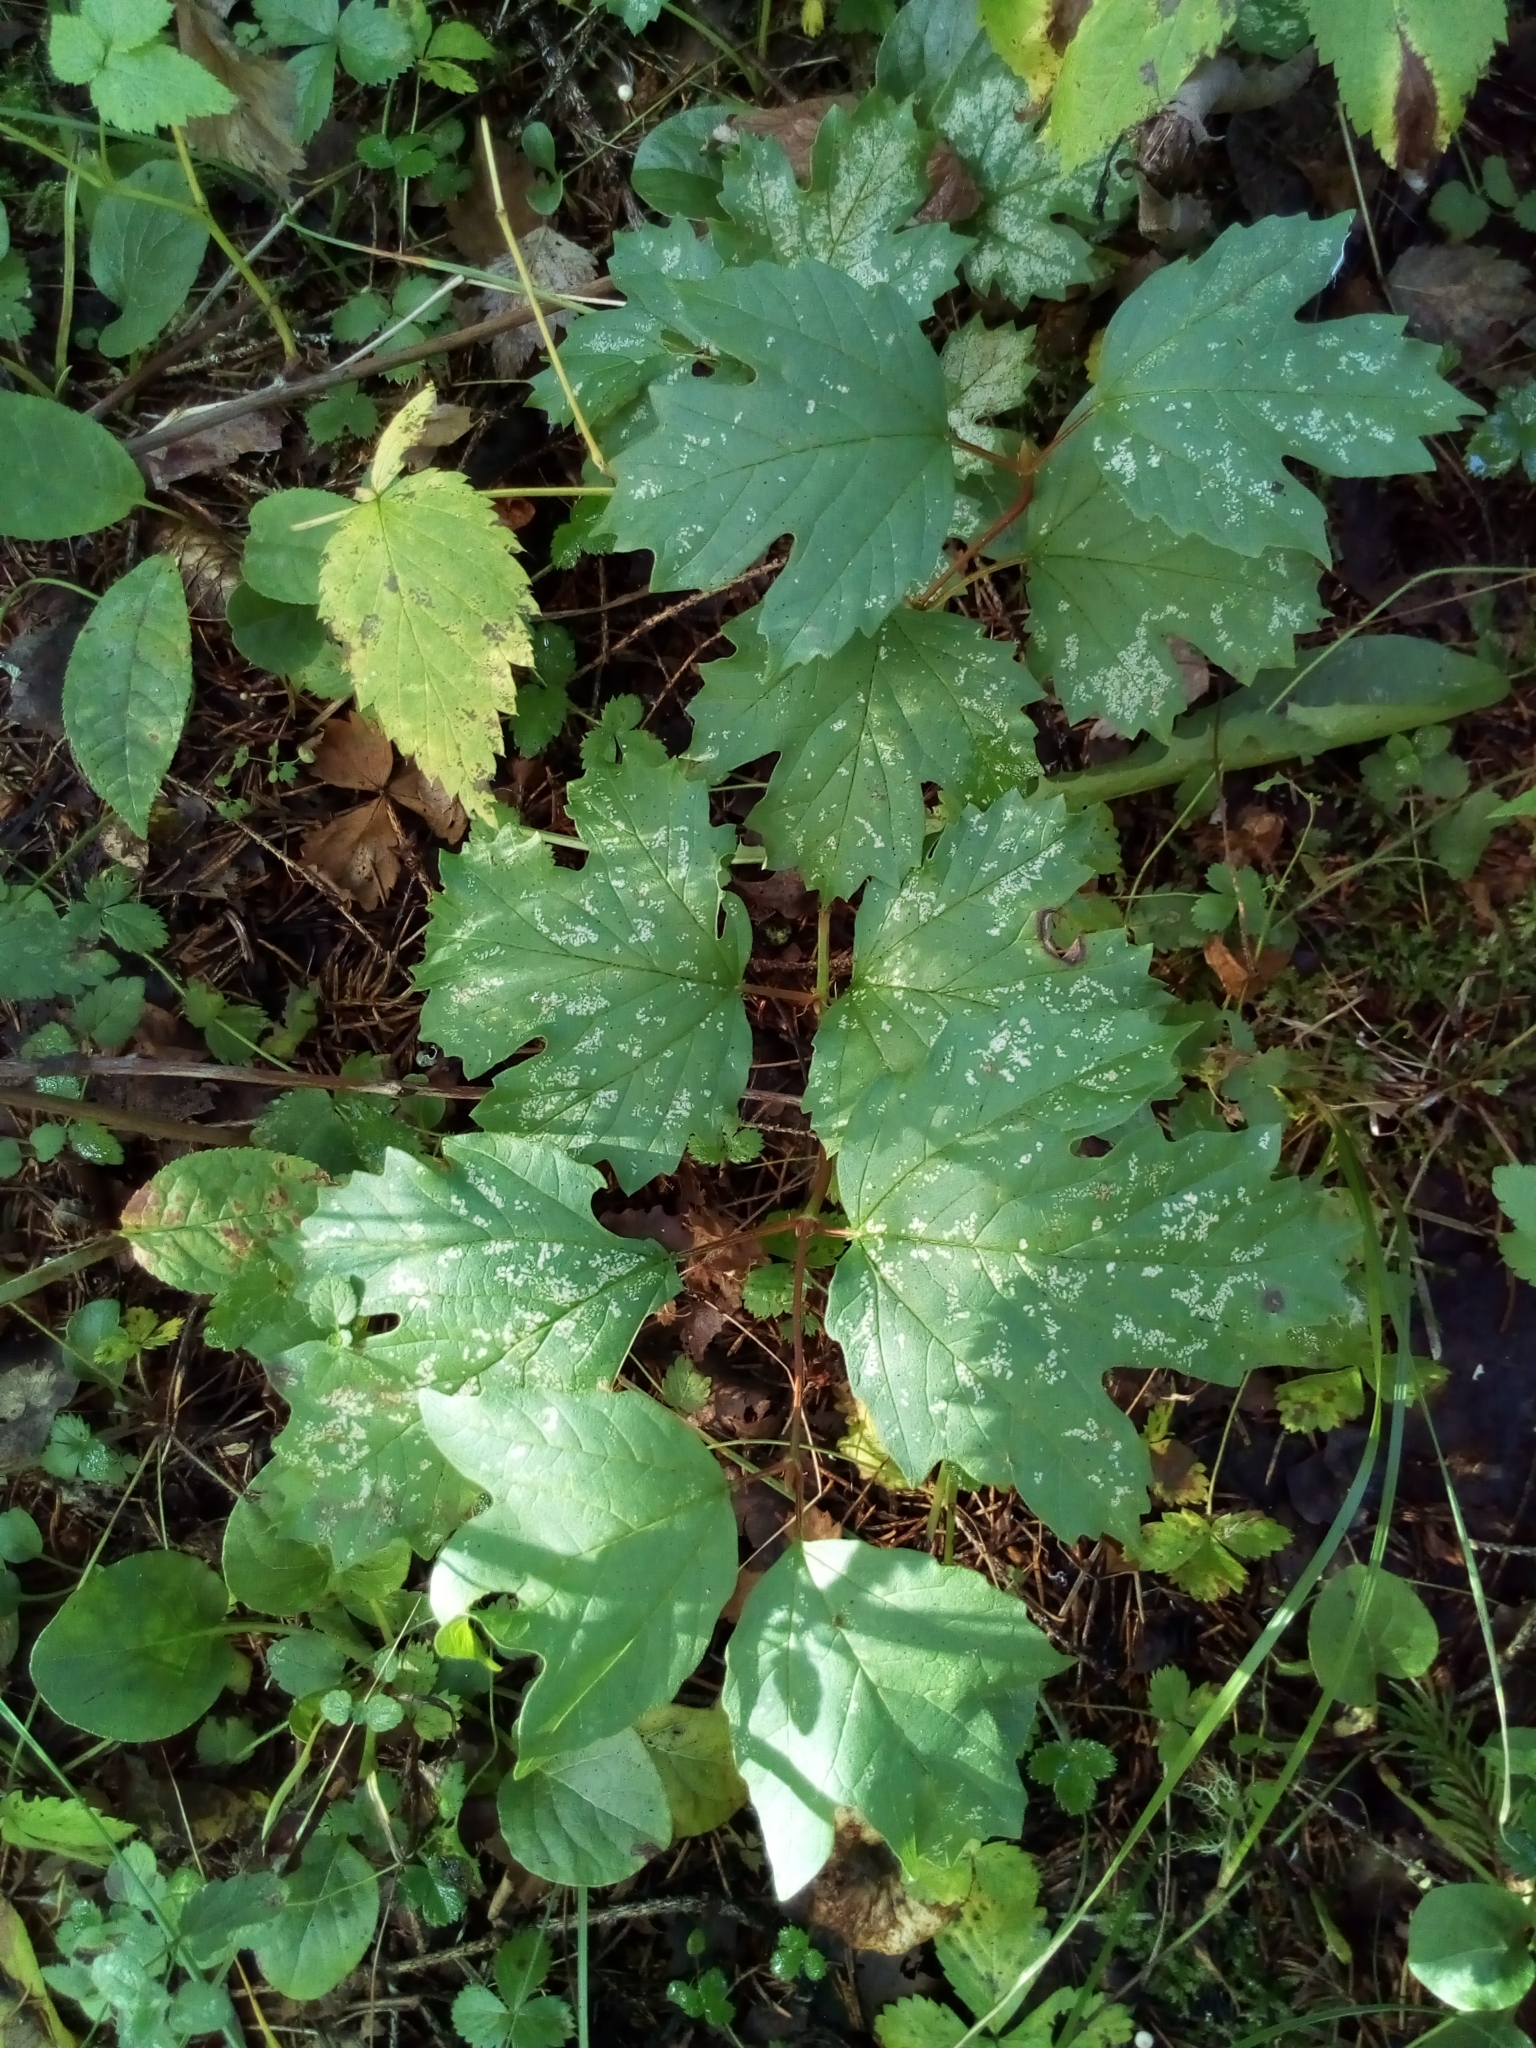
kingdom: Plantae
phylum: Tracheophyta
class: Magnoliopsida
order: Dipsacales
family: Viburnaceae
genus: Viburnum
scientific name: Viburnum opulus
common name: Guelder-rose
